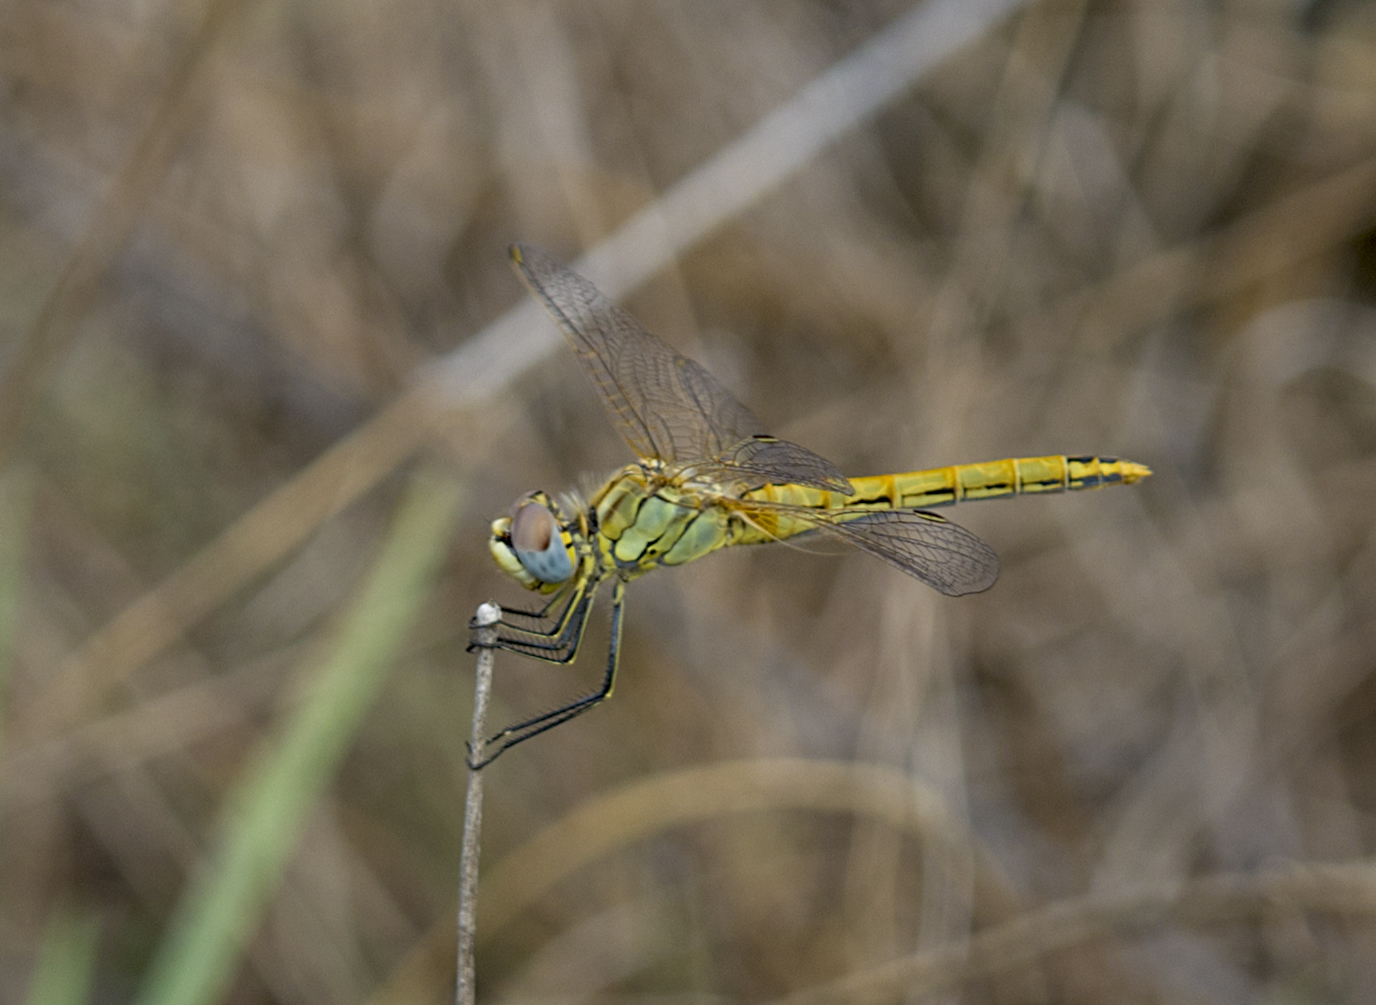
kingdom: Animalia
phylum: Arthropoda
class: Insecta
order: Odonata
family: Libellulidae
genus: Sympetrum
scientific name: Sympetrum fonscolombii
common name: Red-veined darter
